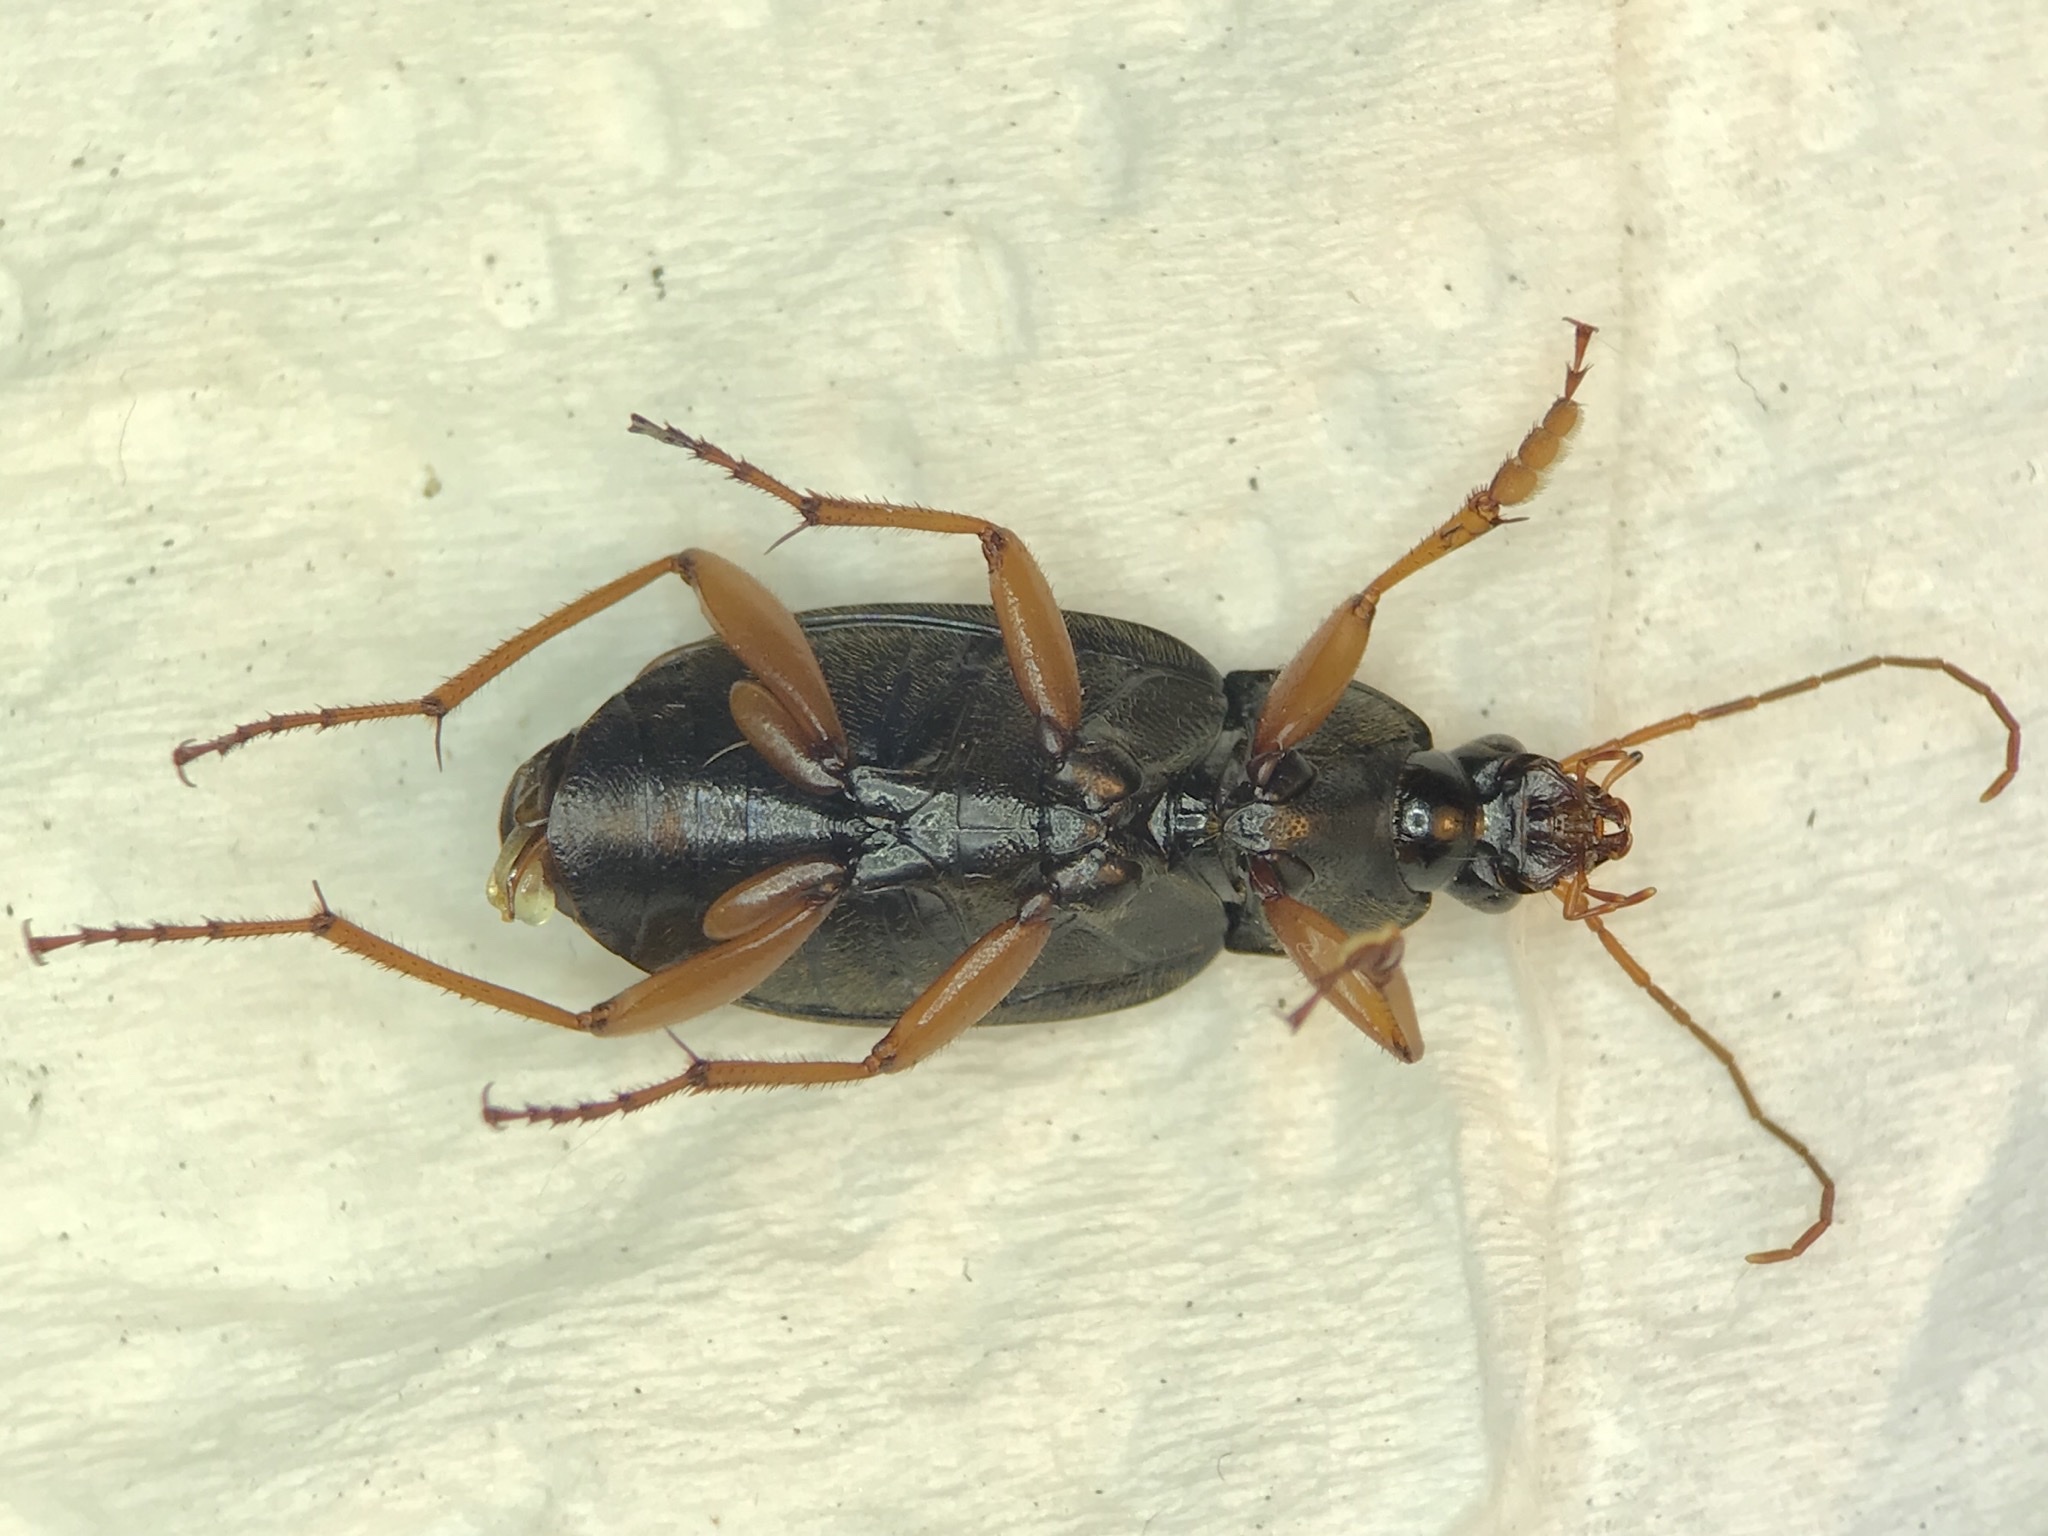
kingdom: Animalia
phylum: Arthropoda
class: Insecta
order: Coleoptera
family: Carabidae
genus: Chlaenius
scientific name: Chlaenius laticollis
